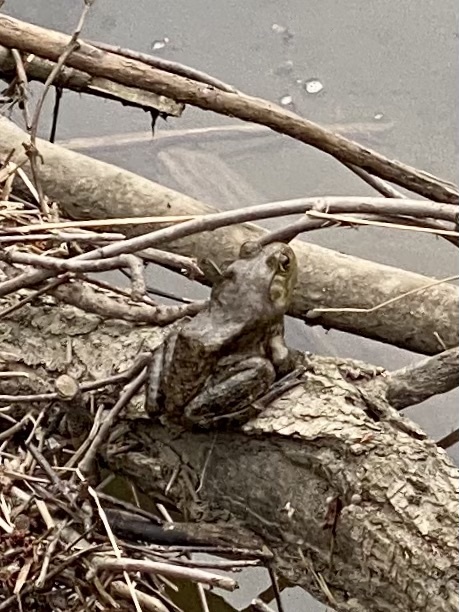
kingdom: Animalia
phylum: Chordata
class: Amphibia
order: Anura
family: Ranidae
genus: Lithobates
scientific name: Lithobates catesbeianus
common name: American bullfrog
